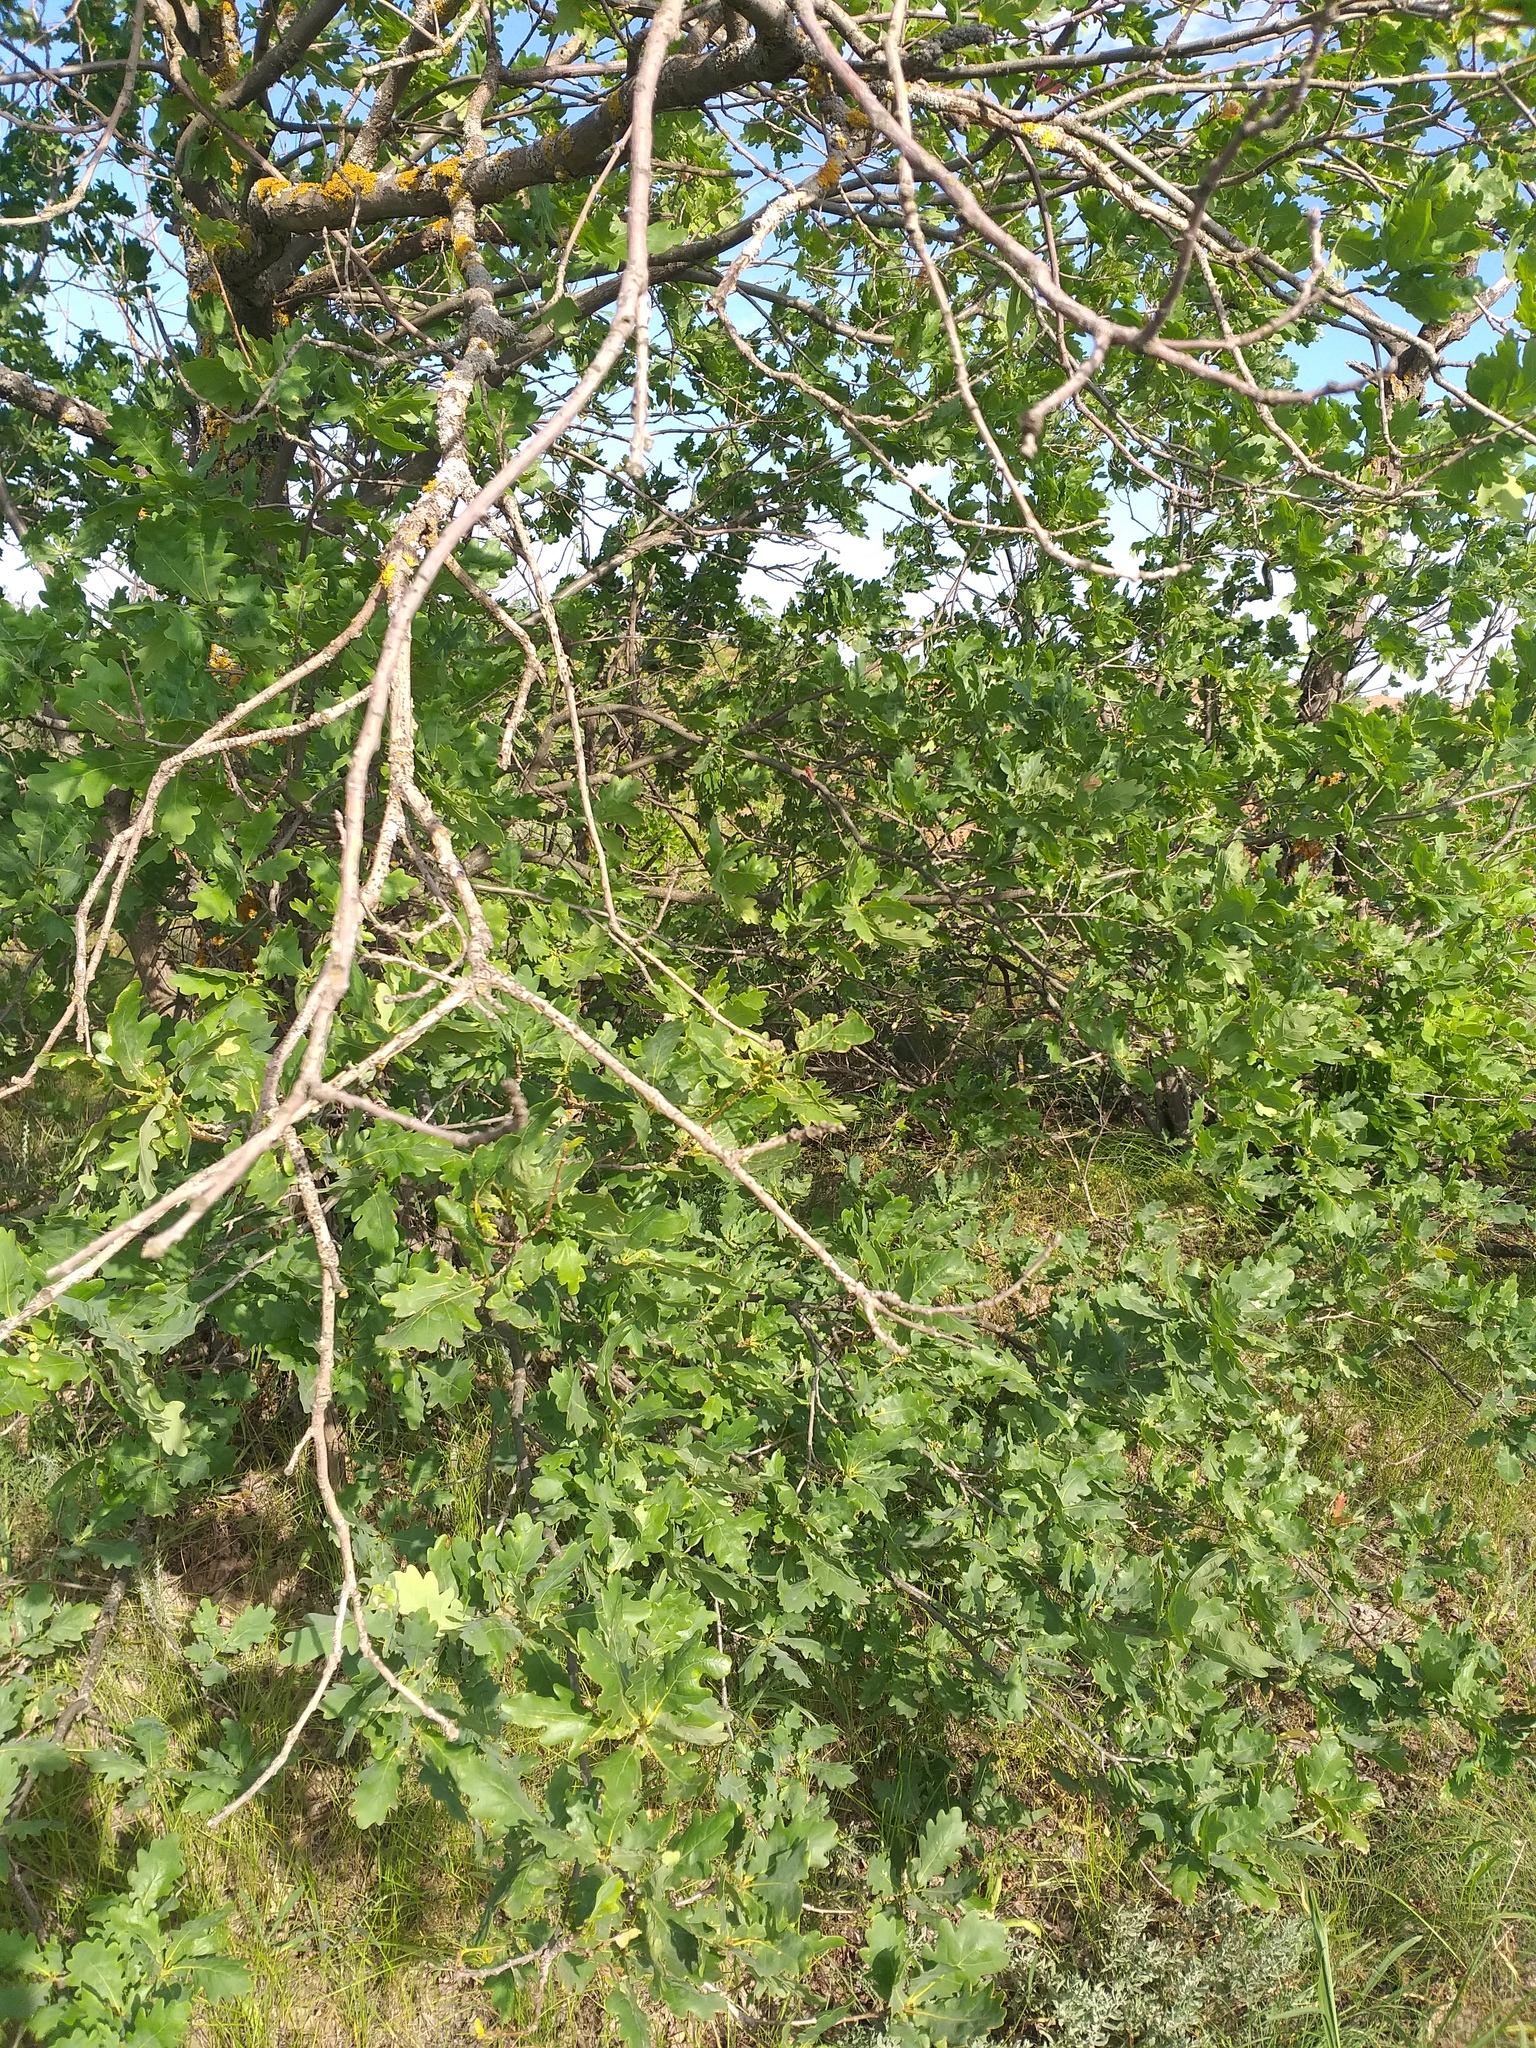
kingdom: Plantae
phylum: Tracheophyta
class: Magnoliopsida
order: Fagales
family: Fagaceae
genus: Quercus
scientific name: Quercus robur
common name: Pedunculate oak
